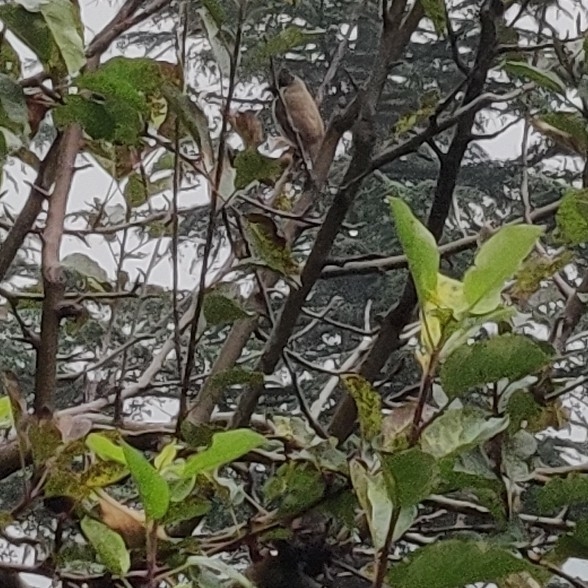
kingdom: Animalia
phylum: Chordata
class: Aves
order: Passeriformes
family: Pycnonotidae
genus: Pycnonotus
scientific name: Pycnonotus leucogenys
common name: Himalayan bulbul
